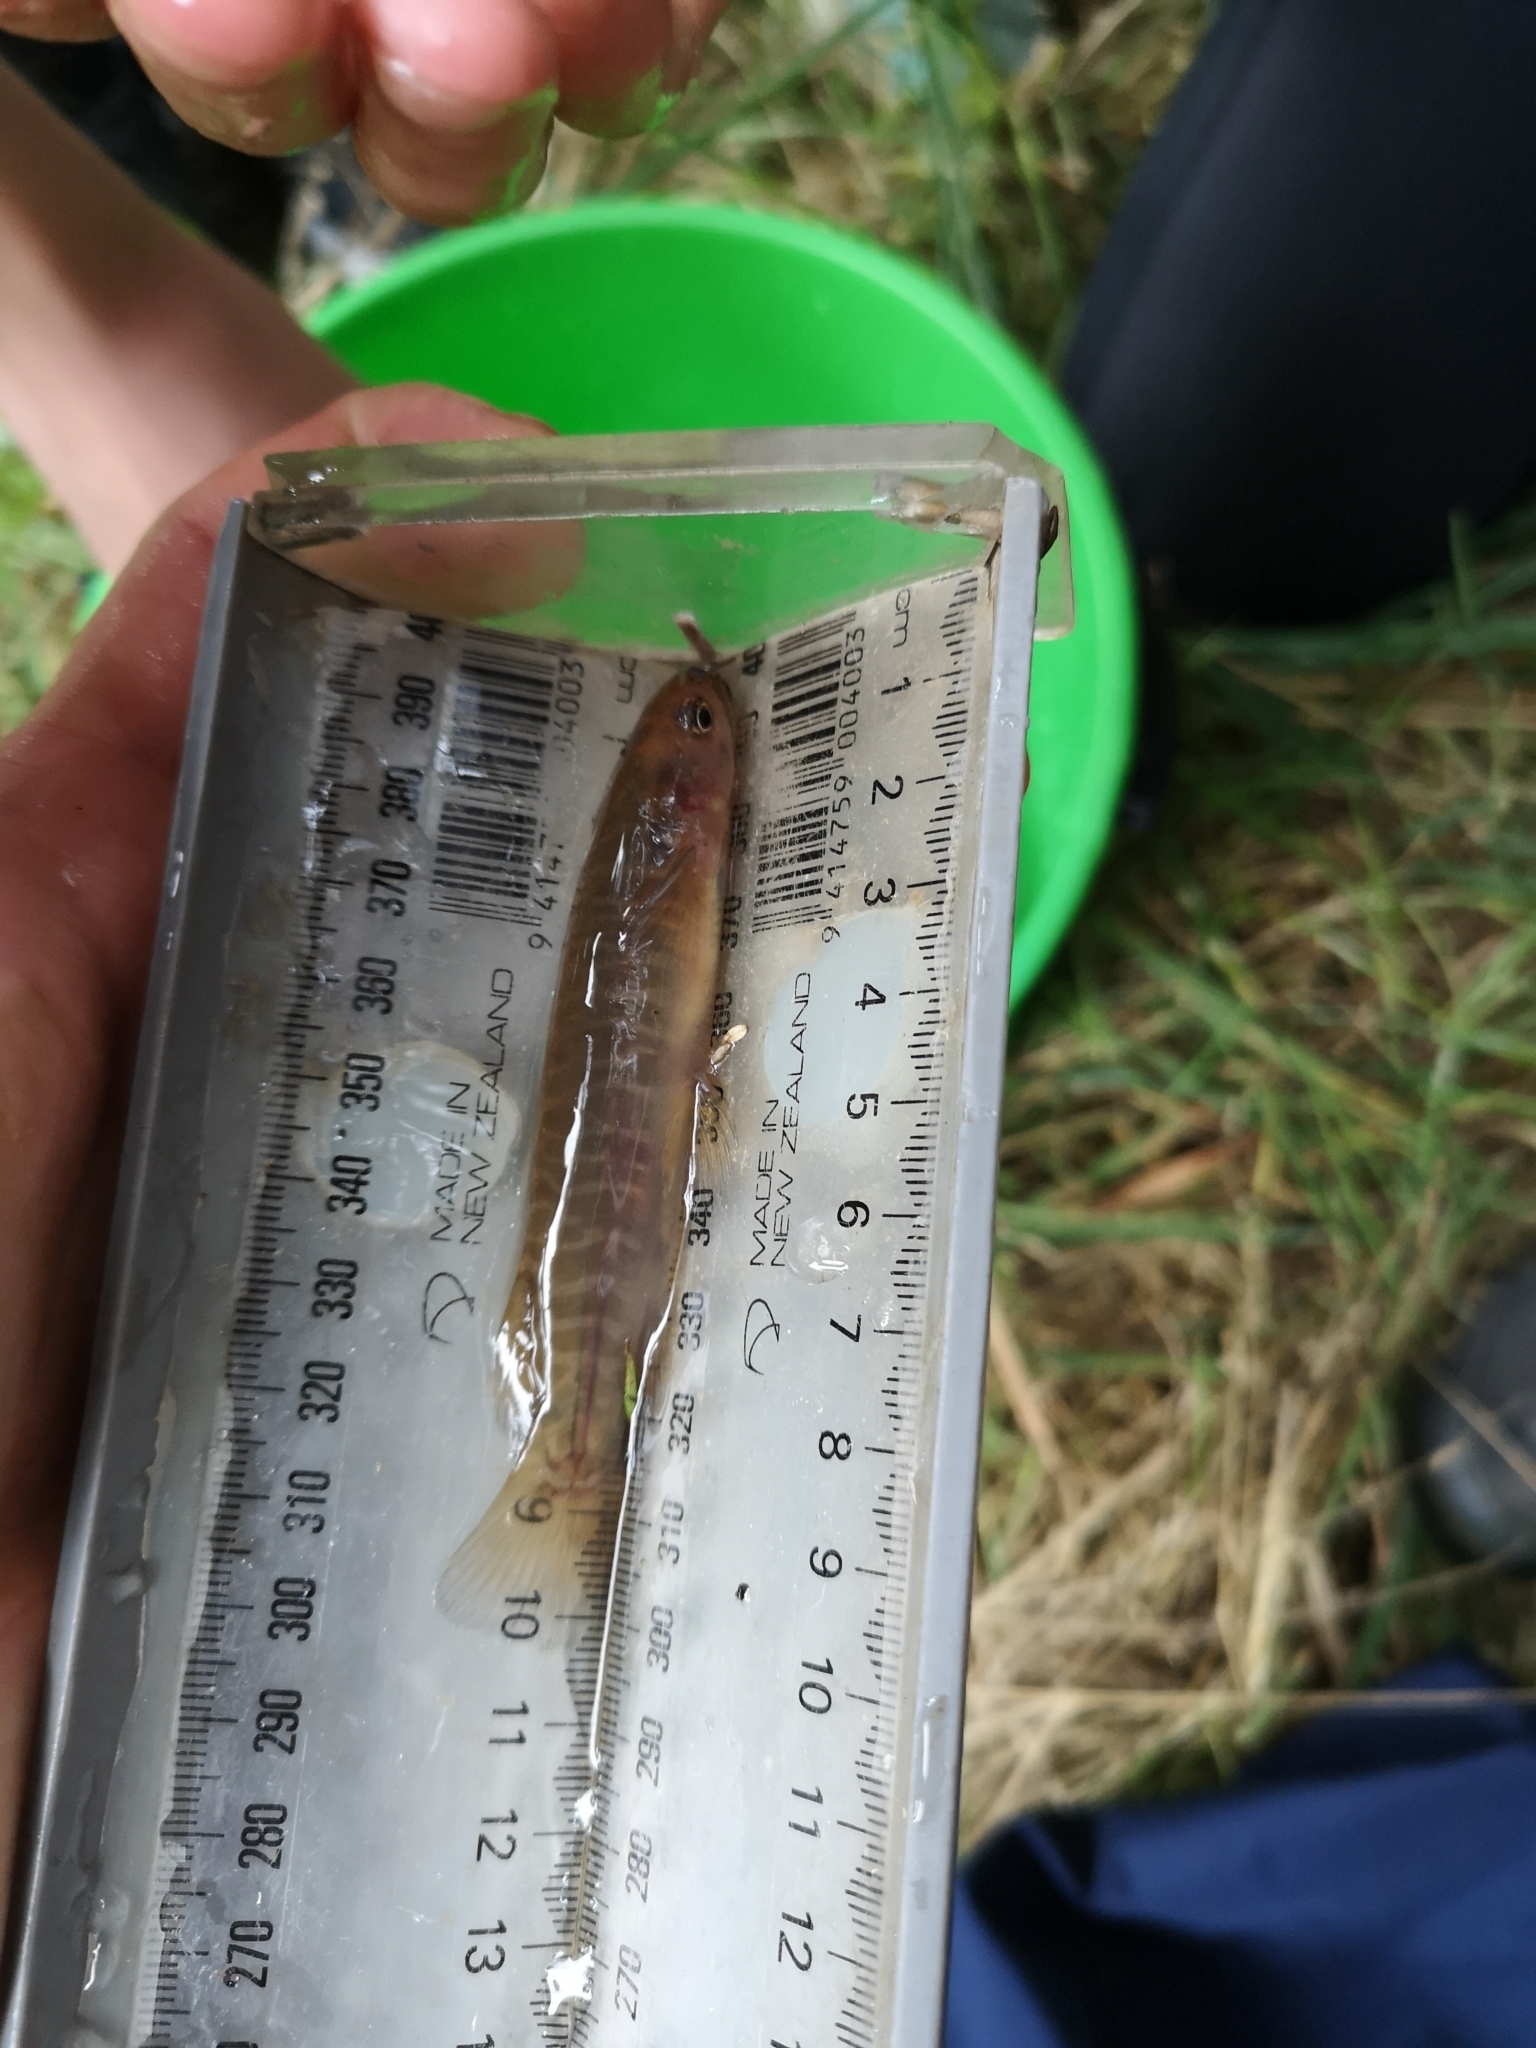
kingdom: Animalia
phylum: Chordata
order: Osmeriformes
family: Galaxiidae
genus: Galaxias
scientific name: Galaxias fasciatus
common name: Banded kokopu
